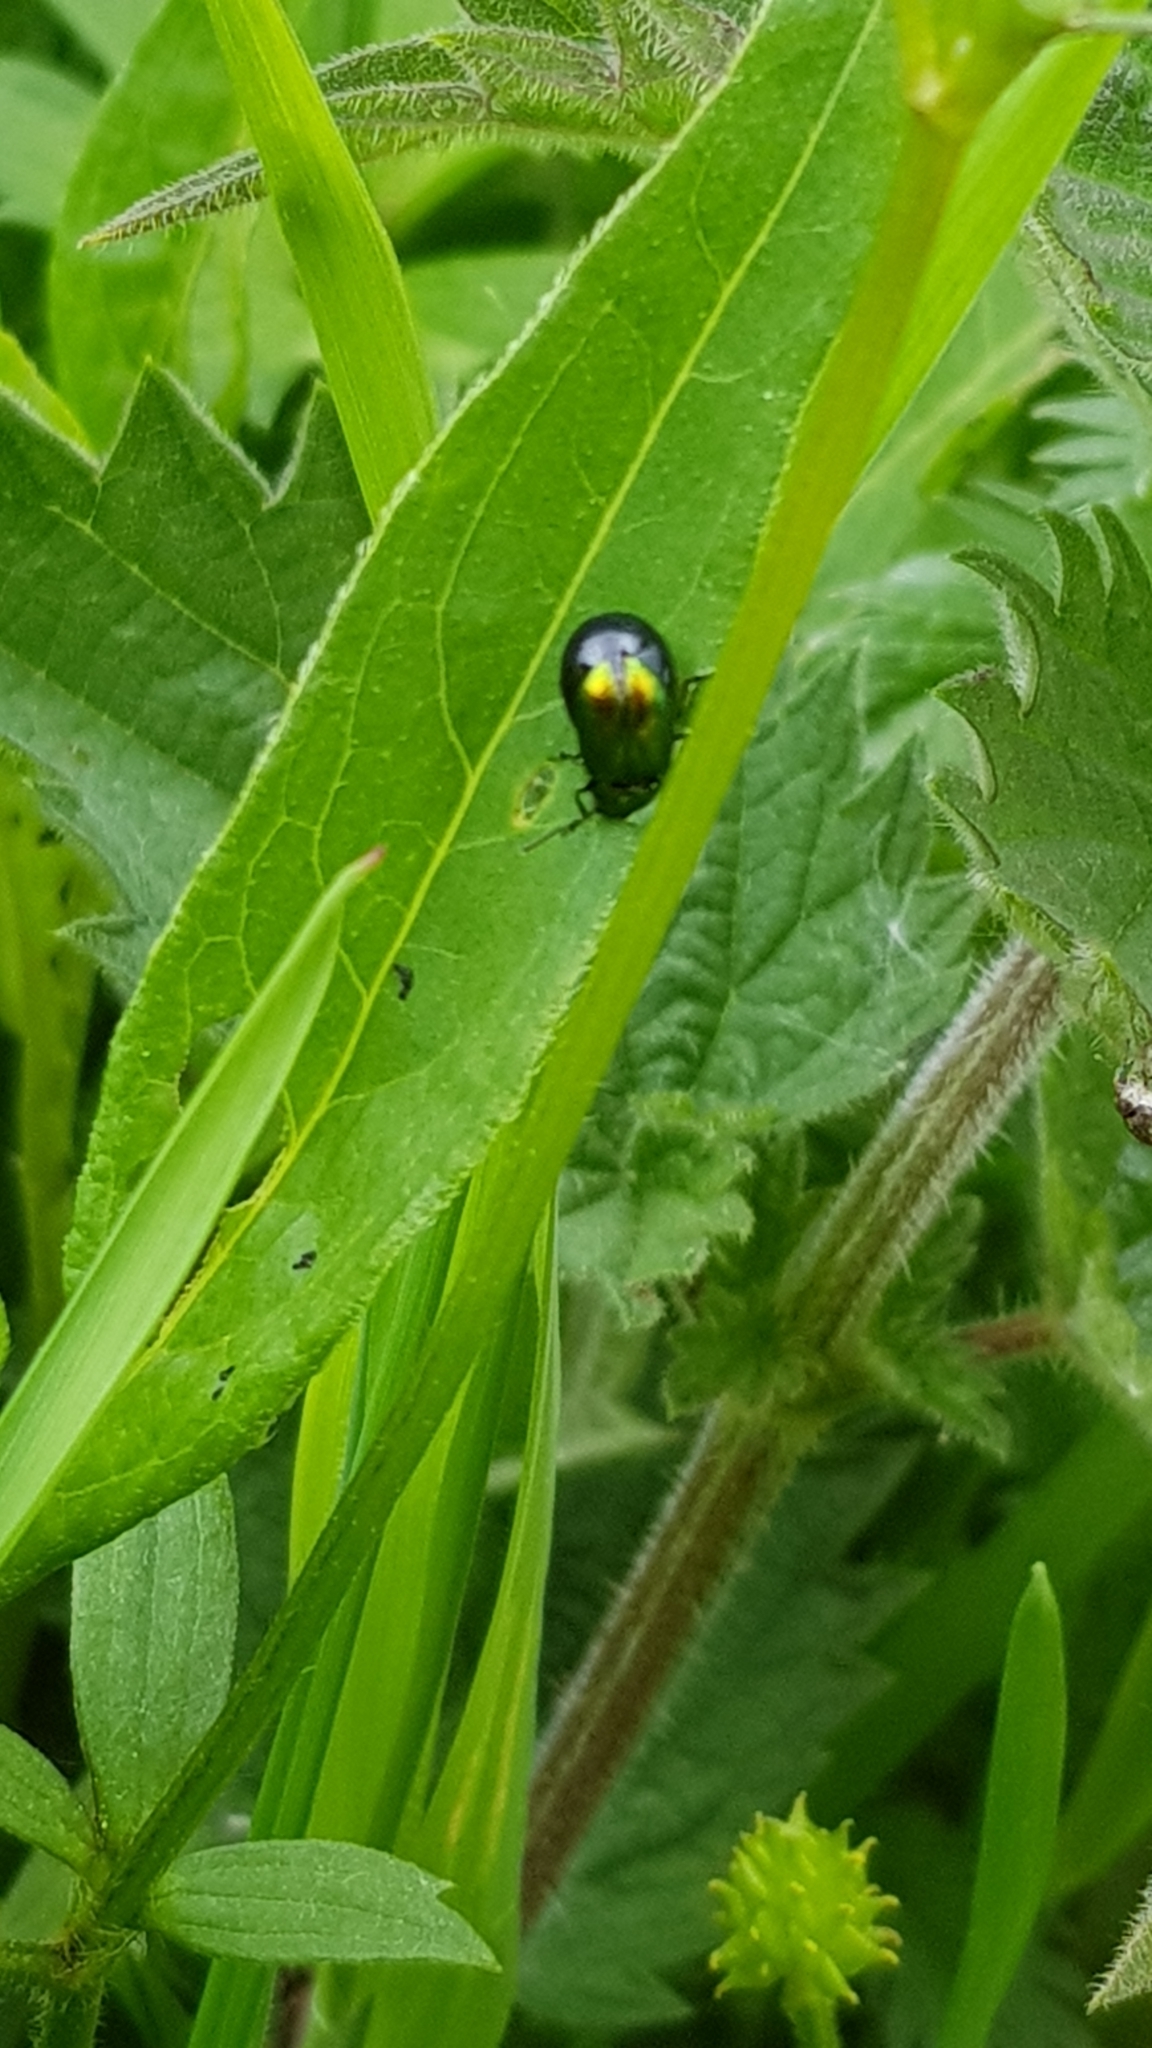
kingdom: Animalia
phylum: Arthropoda
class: Insecta
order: Coleoptera
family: Chrysomelidae
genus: Gastrophysa
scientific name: Gastrophysa viridula
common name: Green dock beetle
